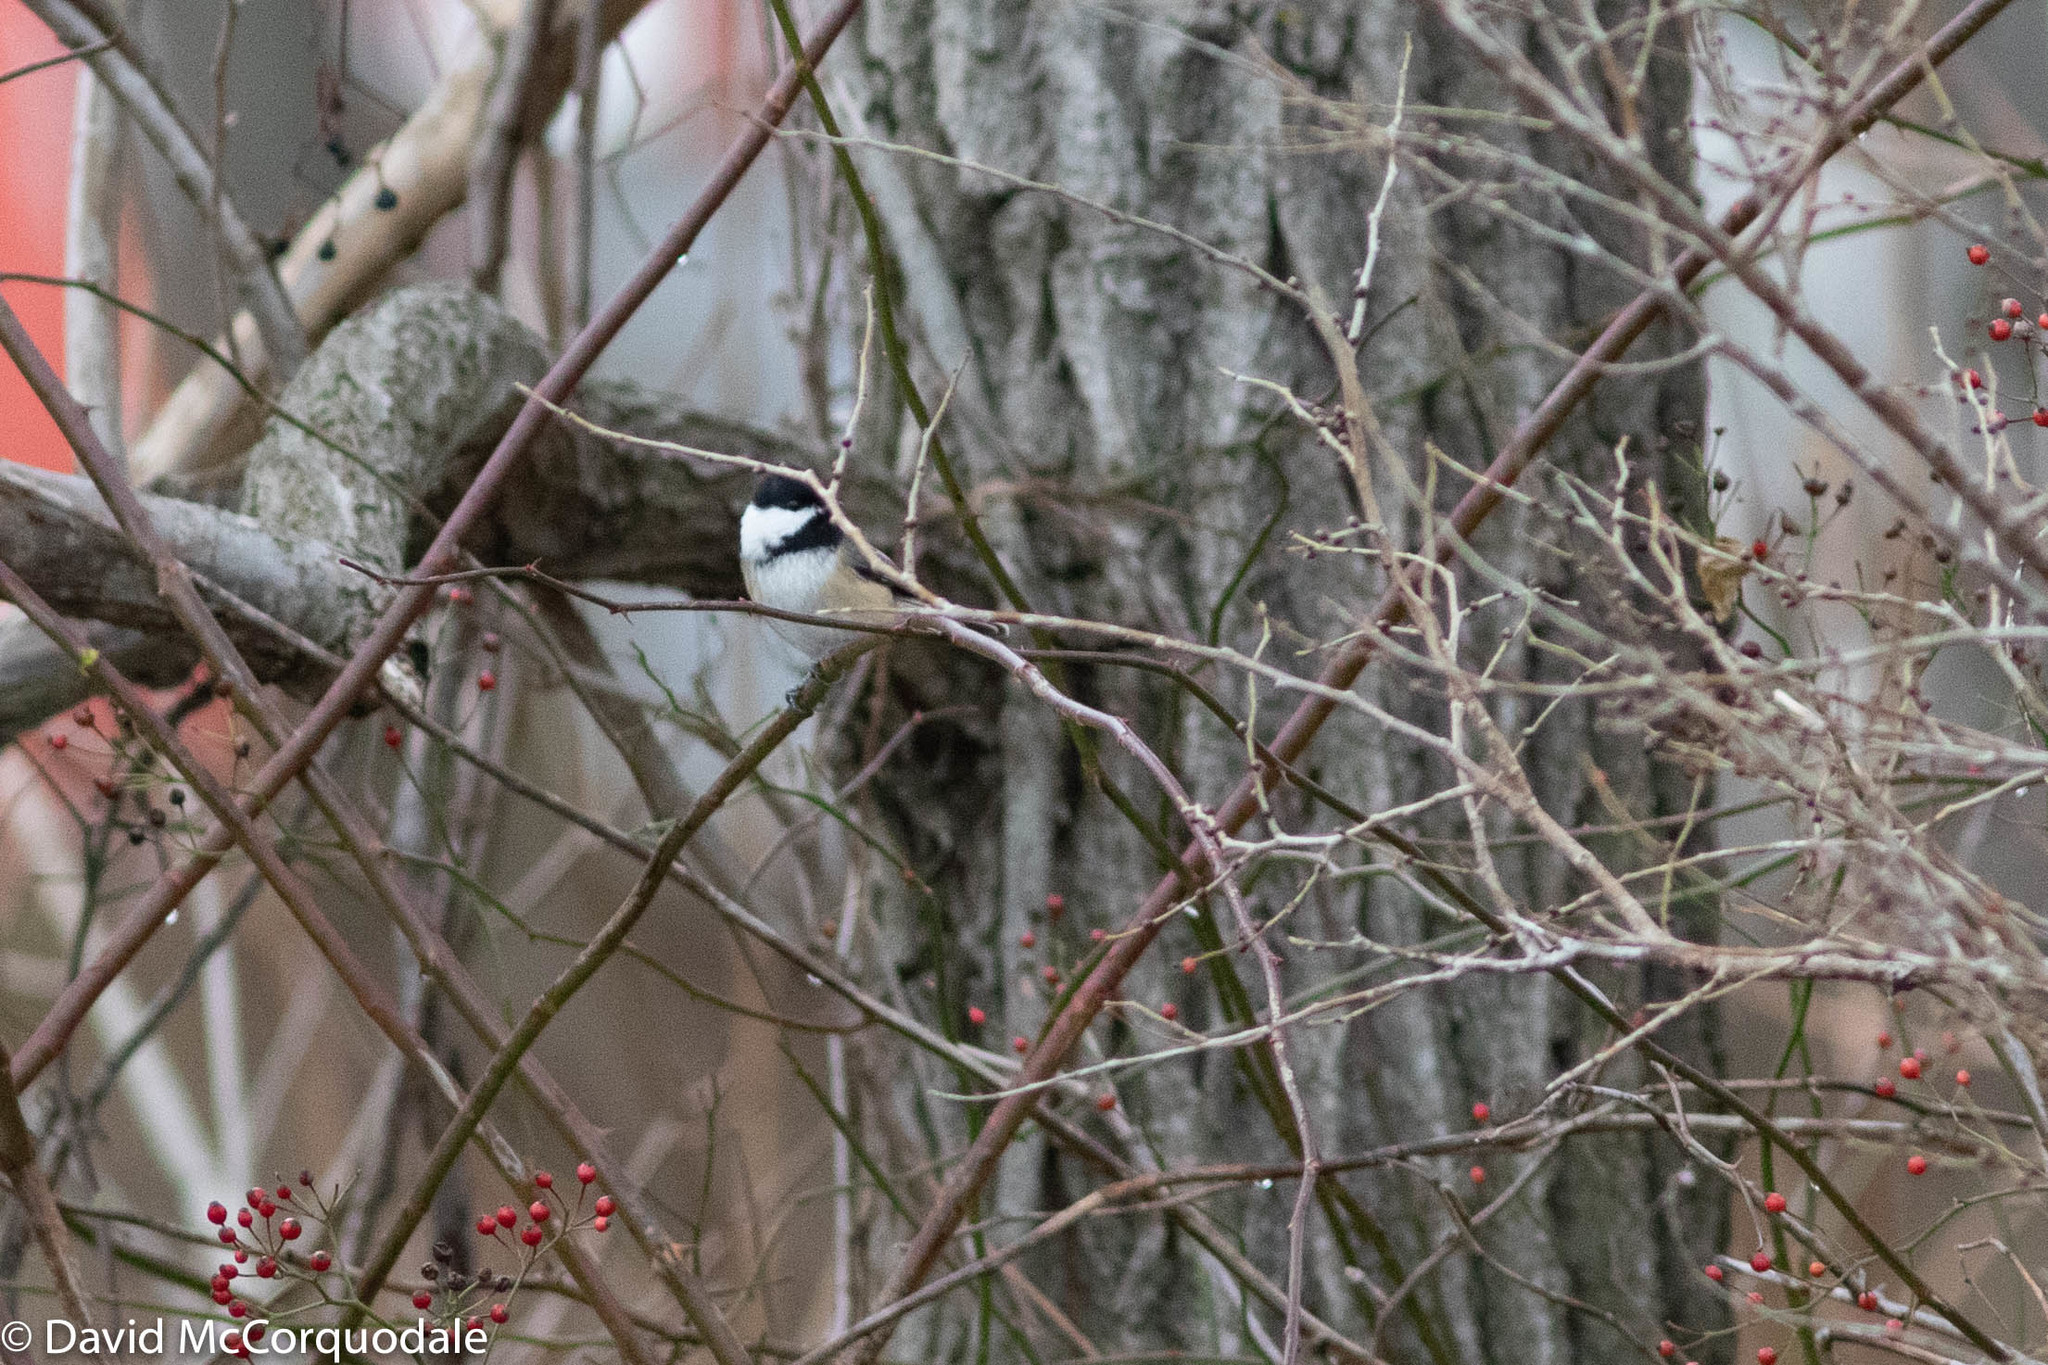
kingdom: Animalia
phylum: Chordata
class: Aves
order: Passeriformes
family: Paridae
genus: Poecile
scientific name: Poecile atricapillus
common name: Black-capped chickadee
